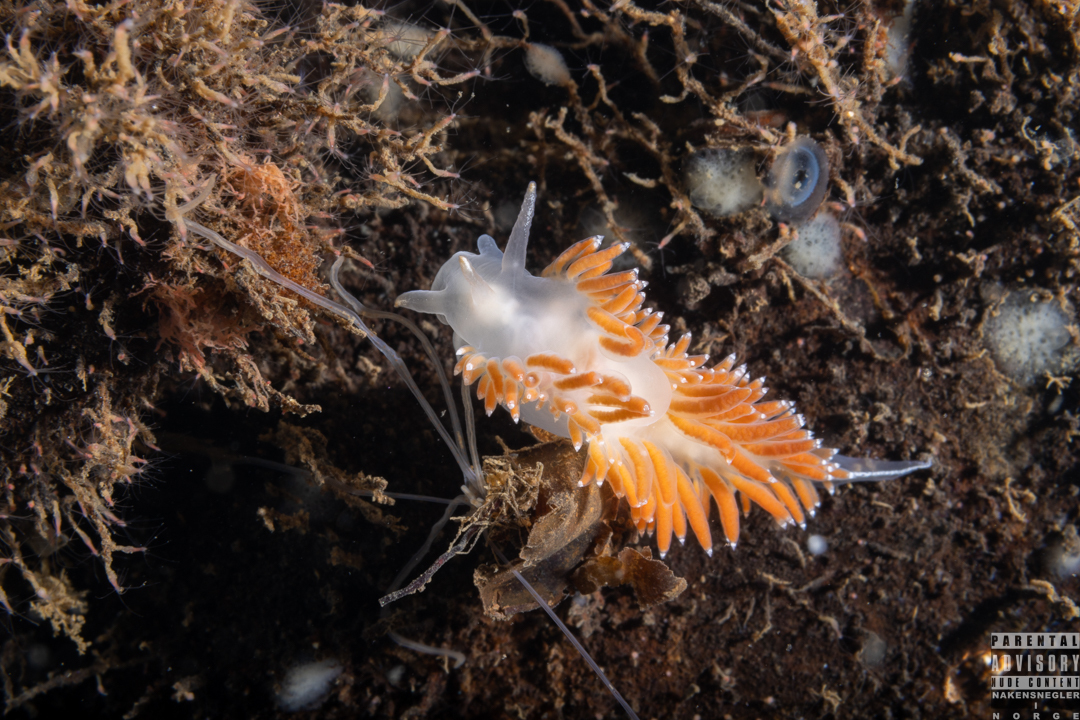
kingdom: Animalia
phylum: Mollusca
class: Gastropoda
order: Nudibranchia
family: Coryphellidae
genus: Coryphella
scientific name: Coryphella borealis
